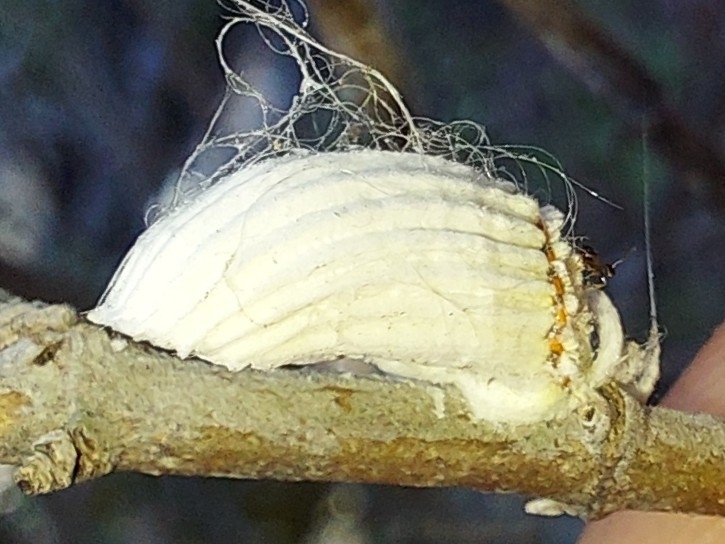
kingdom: Animalia
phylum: Arthropoda
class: Insecta
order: Hemiptera
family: Margarodidae
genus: Icerya
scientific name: Icerya purchasi
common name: Cottony cushion scale
